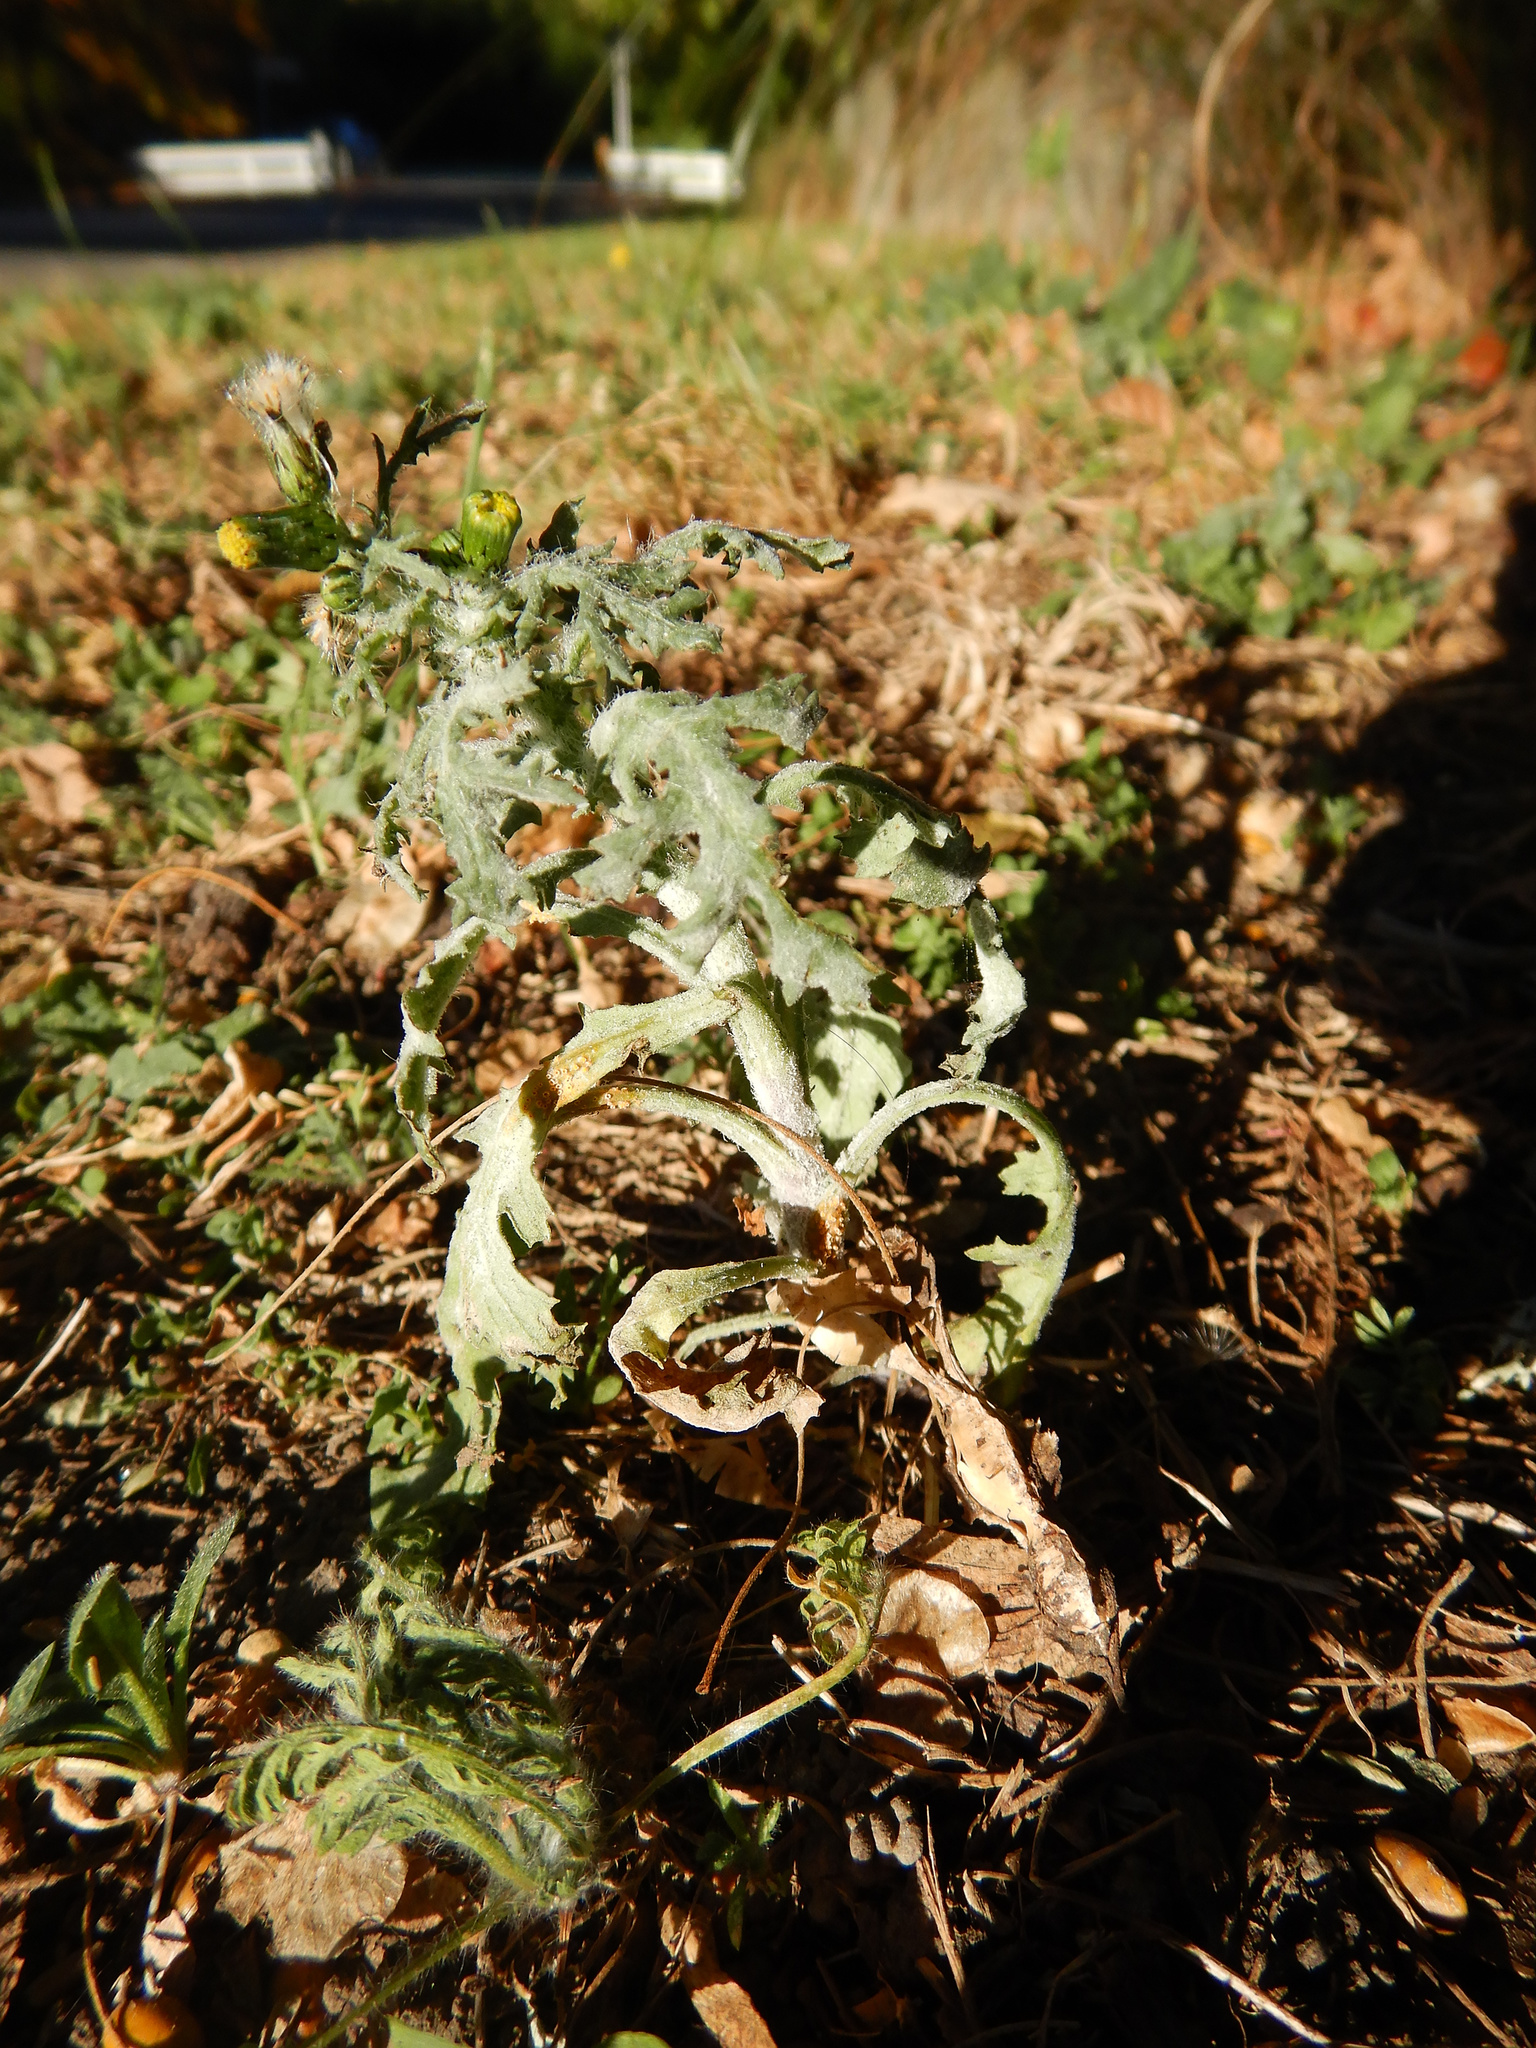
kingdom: Plantae
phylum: Tracheophyta
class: Magnoliopsida
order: Asterales
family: Asteraceae
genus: Senecio
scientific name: Senecio vulgaris
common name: Old-man-in-the-spring
